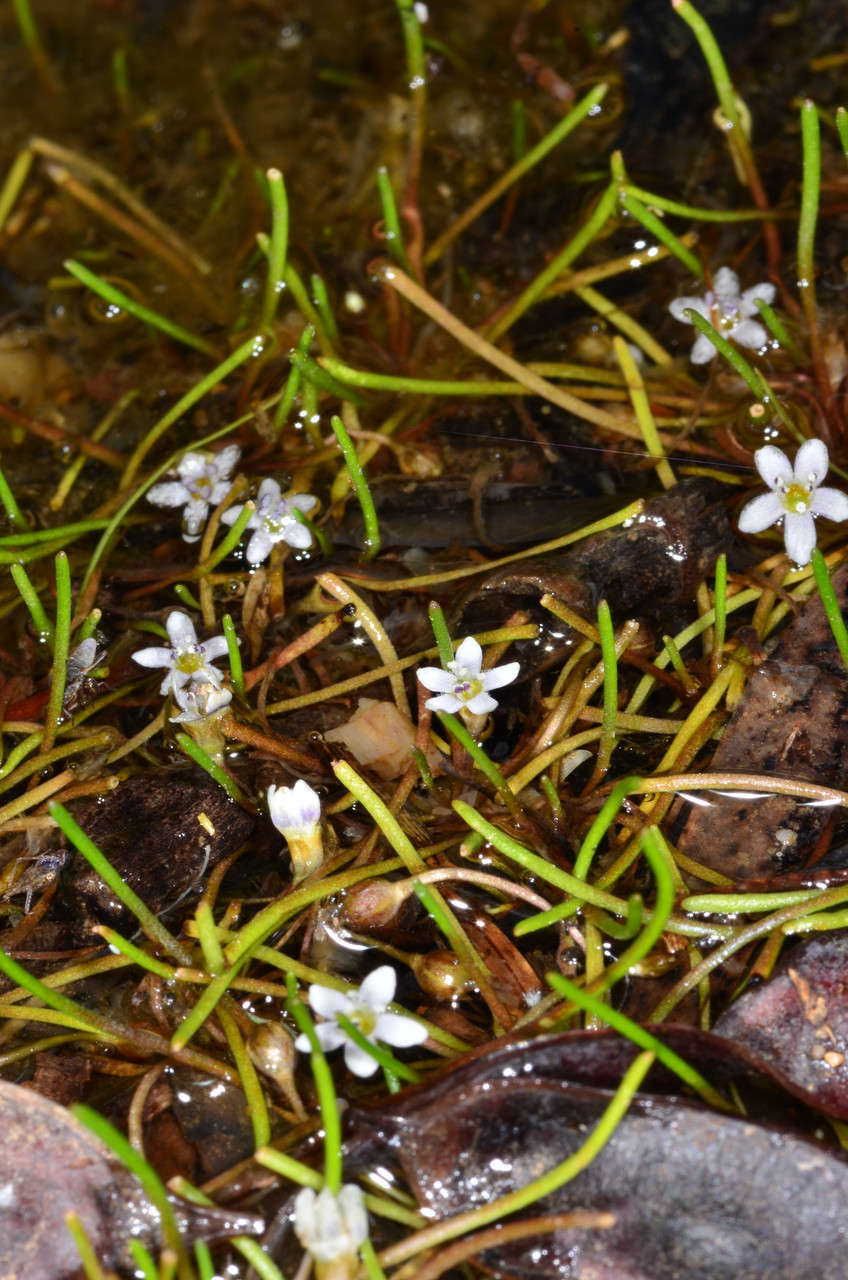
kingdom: Plantae
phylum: Tracheophyta
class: Magnoliopsida
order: Lamiales
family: Scrophulariaceae
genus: Limosella
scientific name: Limosella australis
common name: Welsh mudwort
